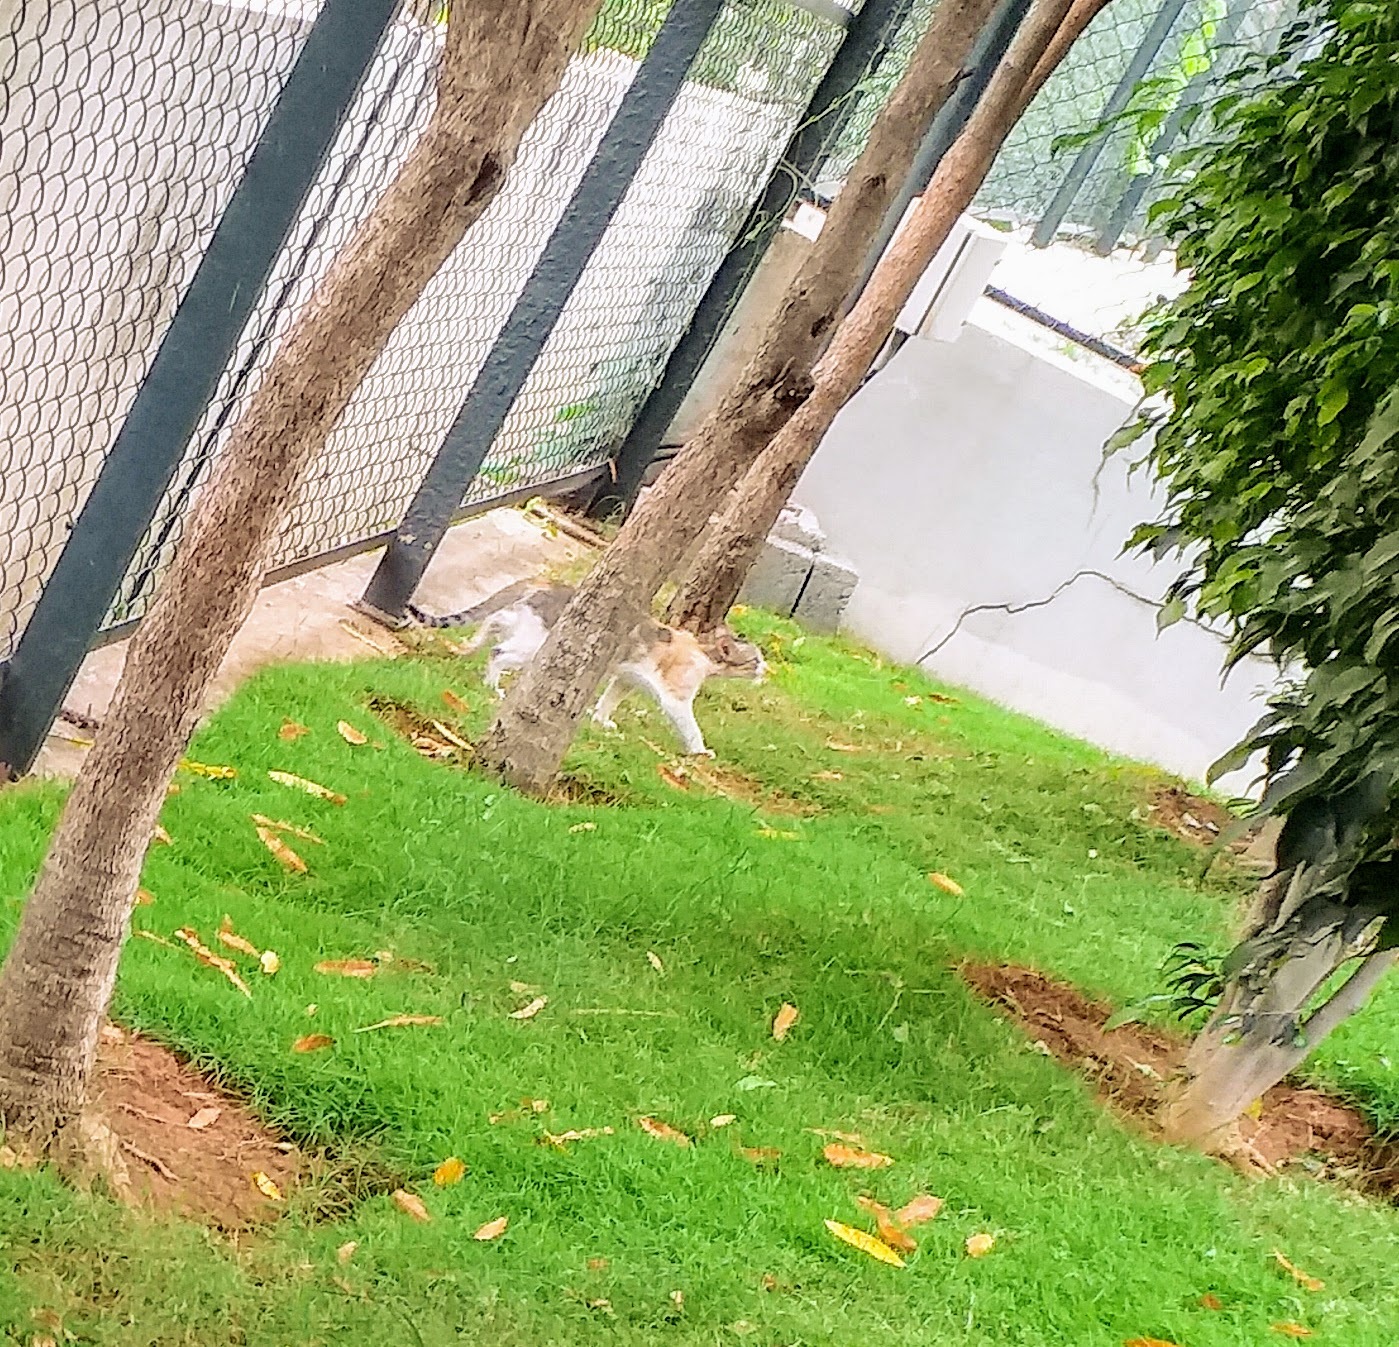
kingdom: Animalia
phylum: Chordata
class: Mammalia
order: Carnivora
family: Felidae
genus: Felis
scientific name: Felis catus
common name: Domestic cat
